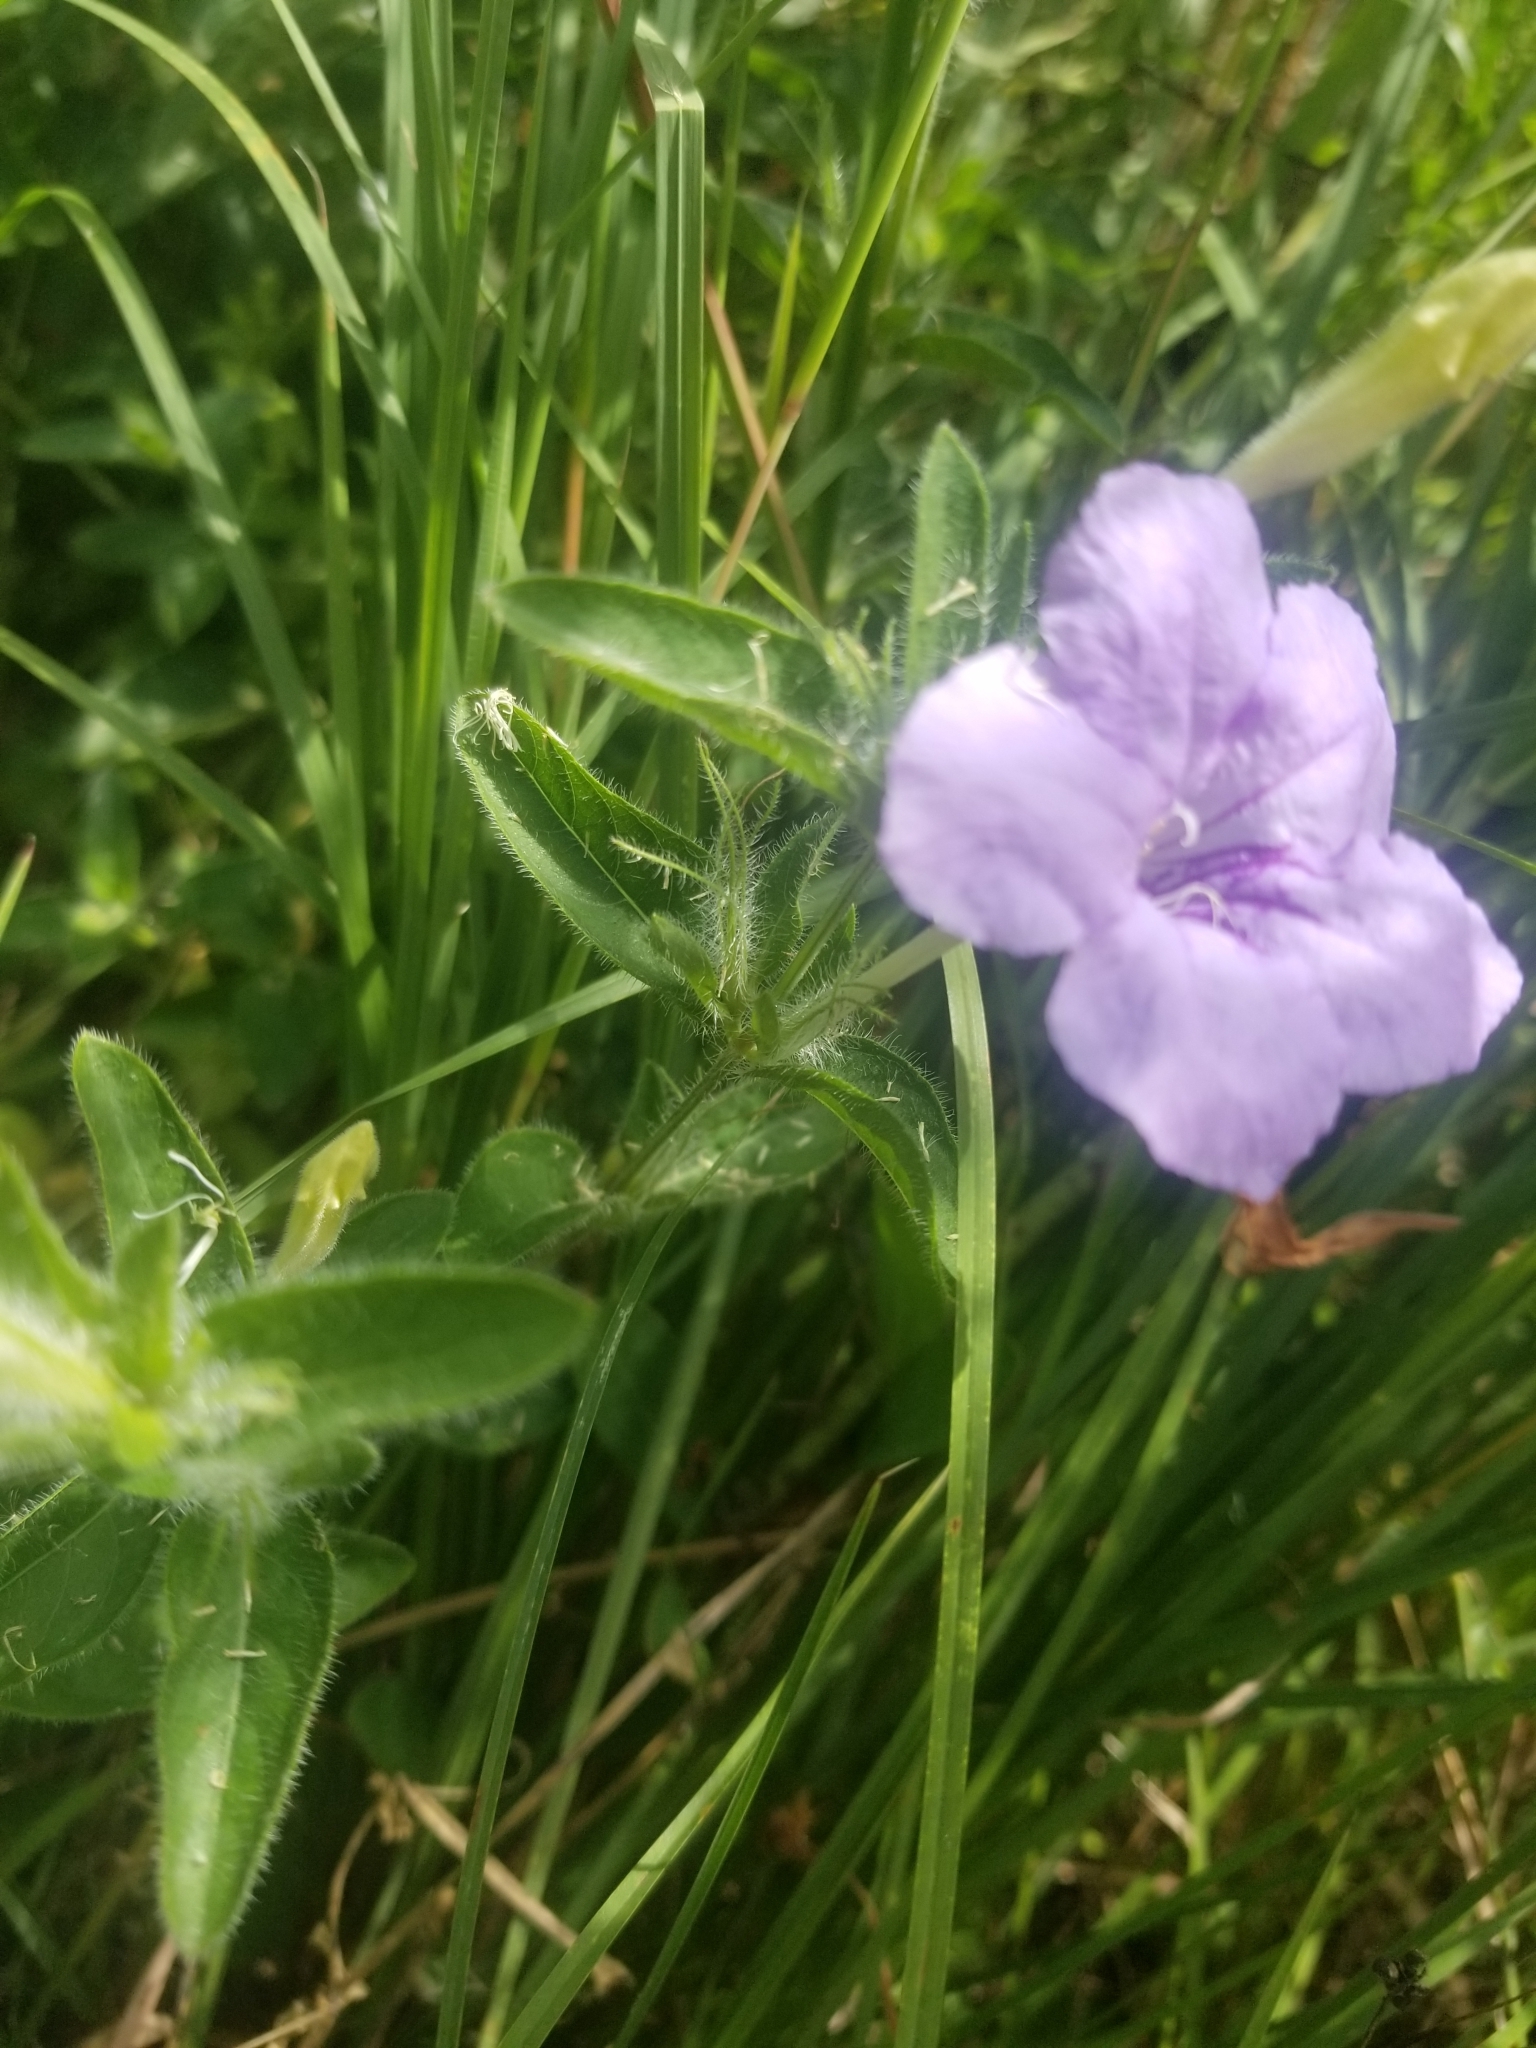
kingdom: Plantae
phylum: Tracheophyta
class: Magnoliopsida
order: Lamiales
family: Acanthaceae
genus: Ruellia
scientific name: Ruellia humilis
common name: Fringe-leaf ruellia
